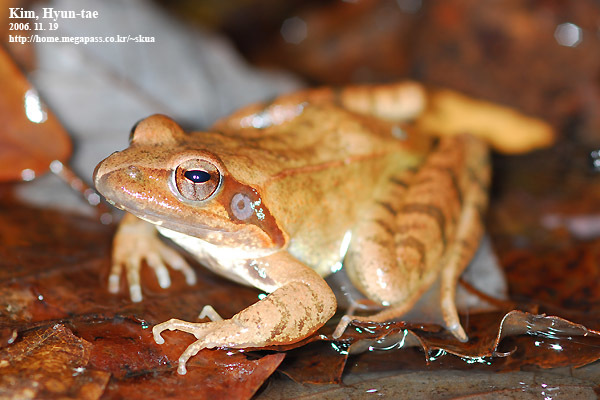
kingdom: Animalia
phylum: Chordata
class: Amphibia
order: Anura
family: Ranidae
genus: Rana
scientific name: Rana uenoi
